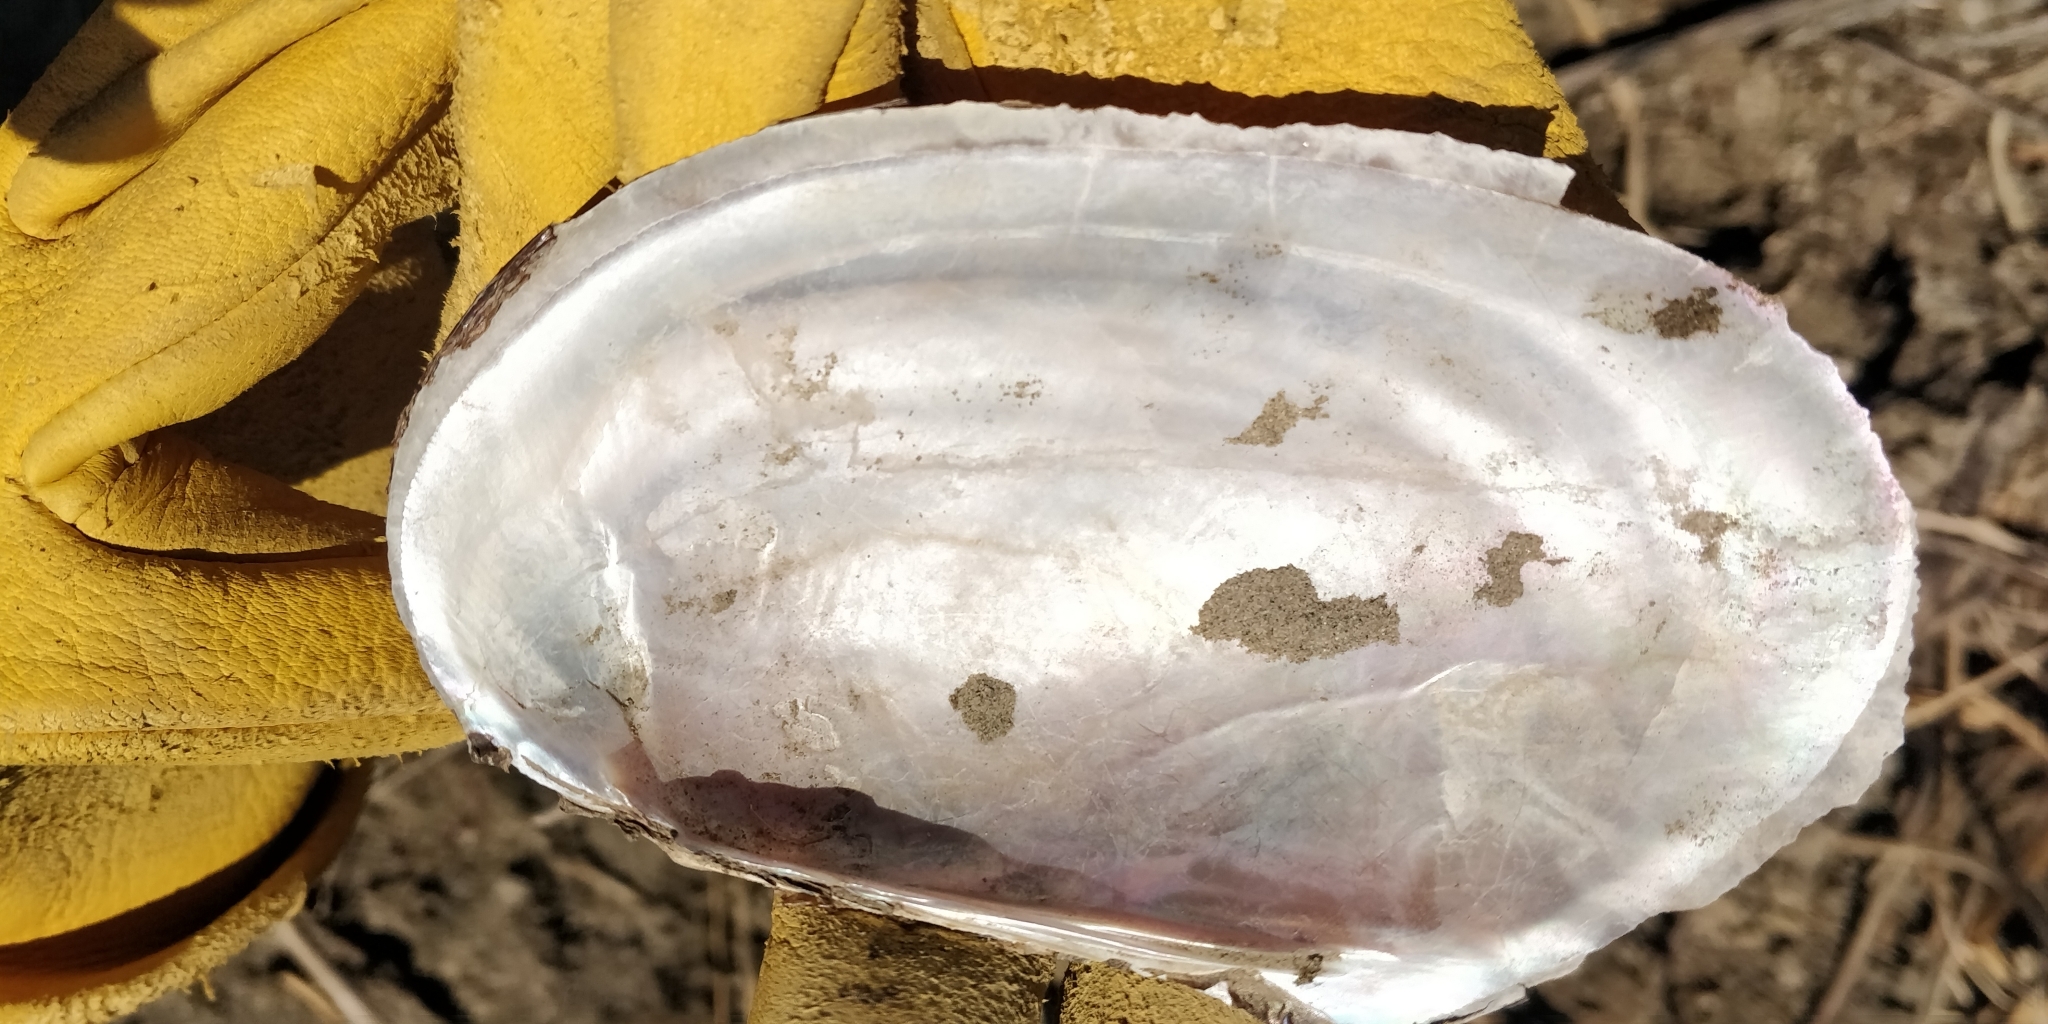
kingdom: Animalia
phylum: Mollusca
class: Bivalvia
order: Unionida
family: Unionidae
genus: Potamilus
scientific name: Potamilus fragilis
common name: Fragile papershell
